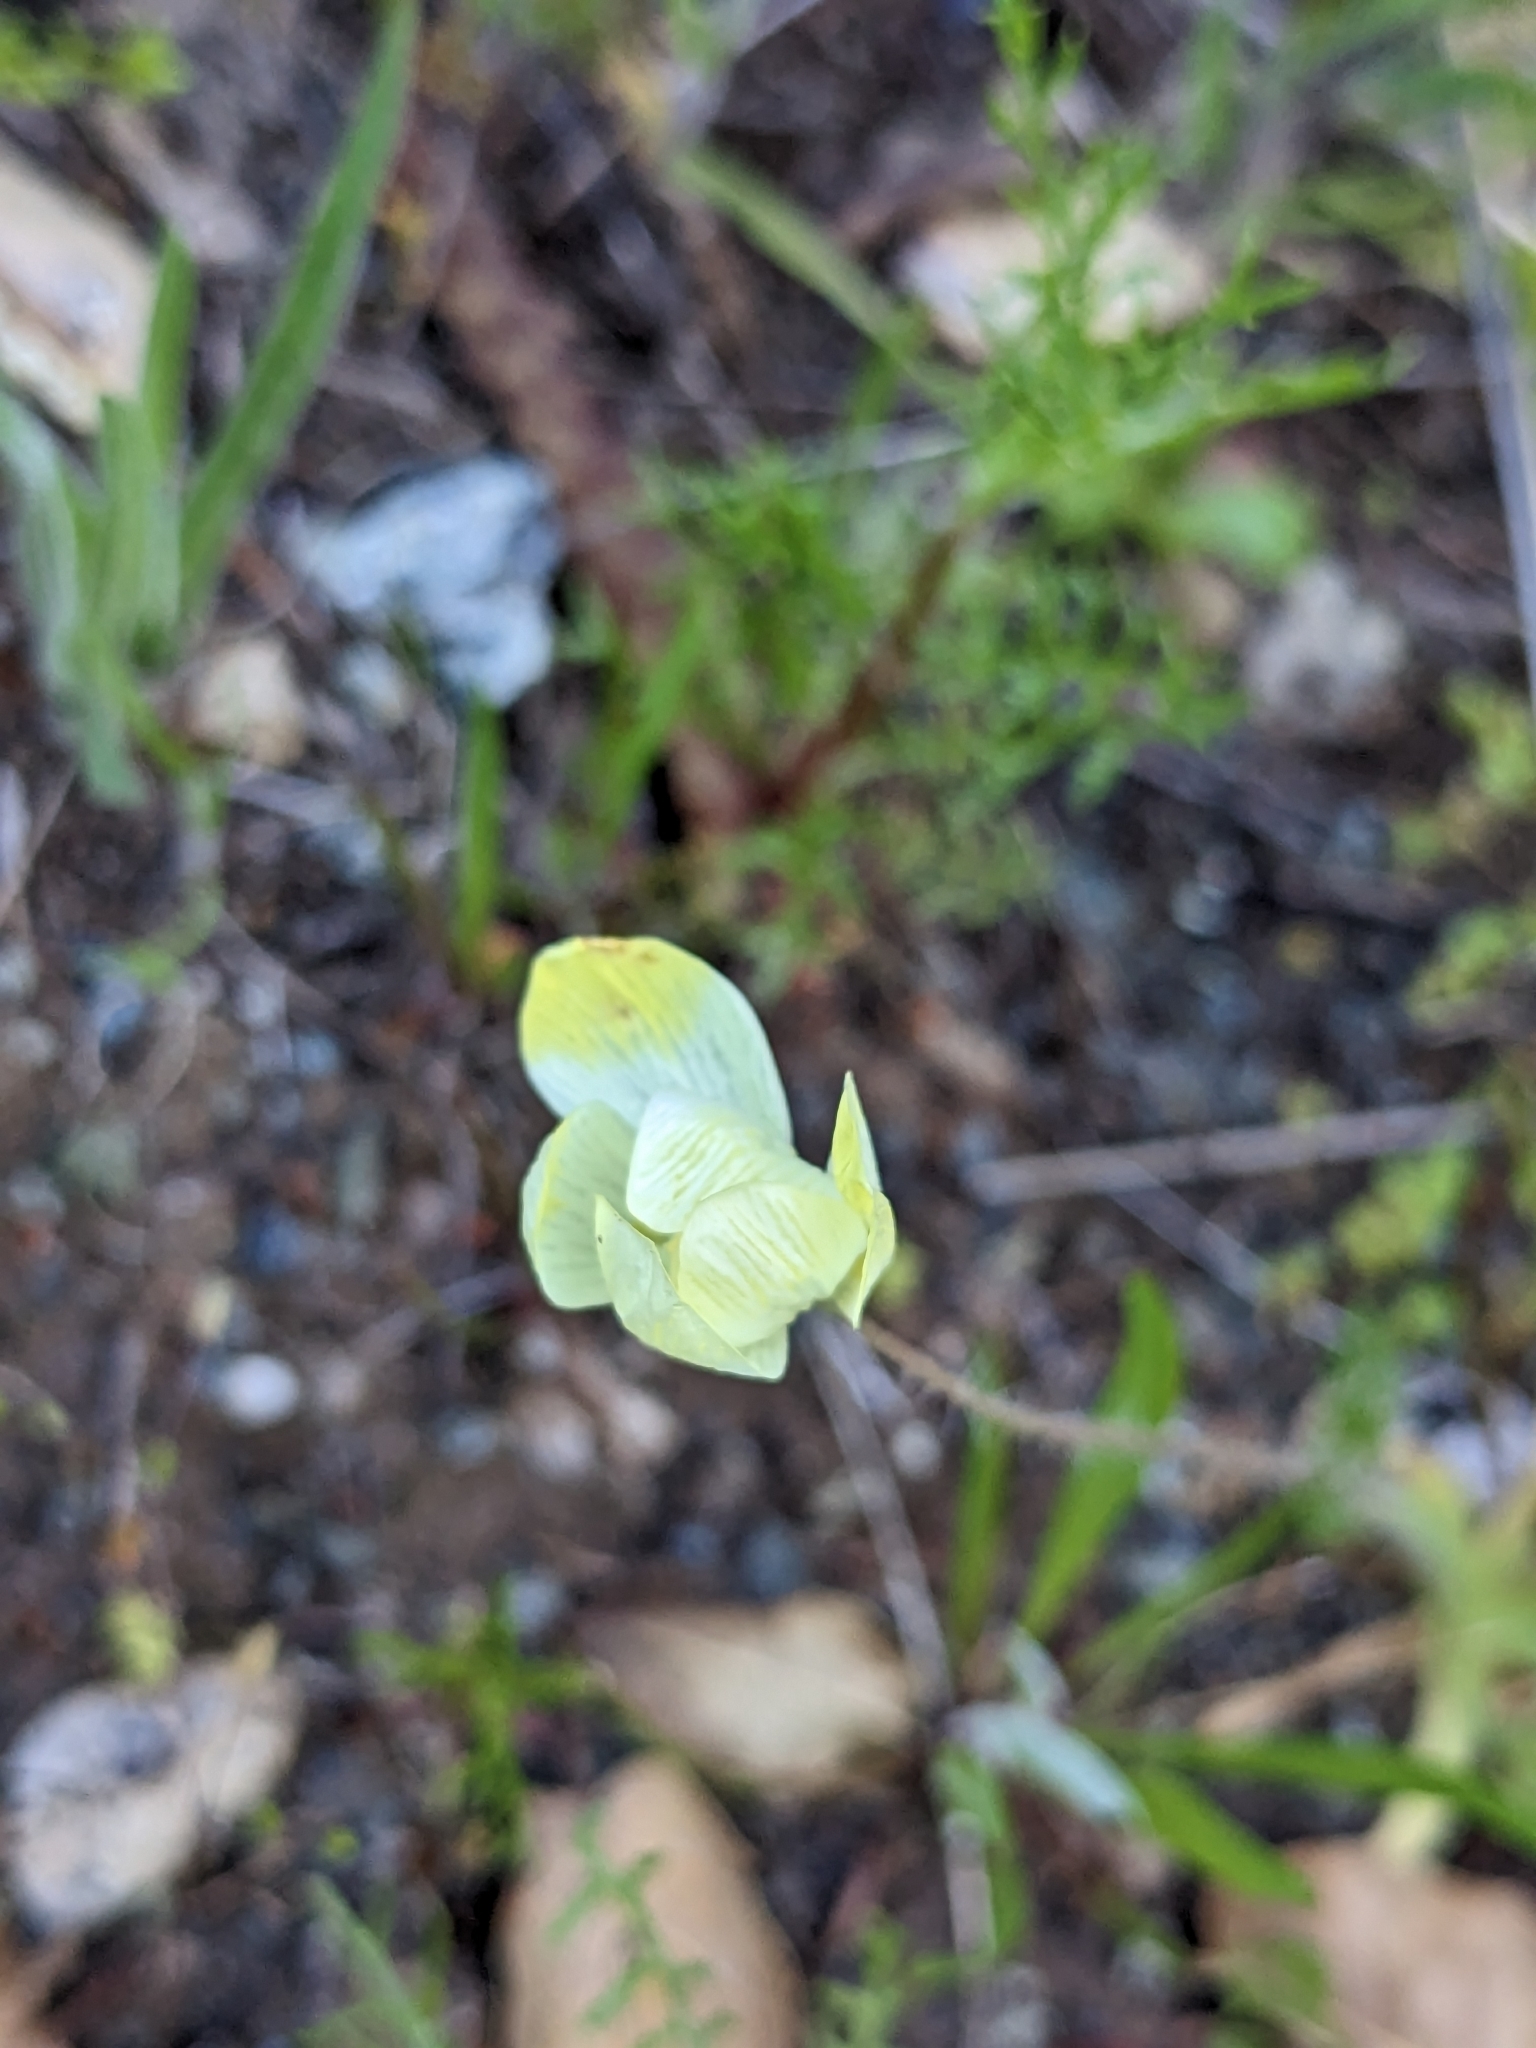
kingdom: Plantae
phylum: Tracheophyta
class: Magnoliopsida
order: Ranunculales
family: Papaveraceae
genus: Platystemon
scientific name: Platystemon californicus
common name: Cream-cups
